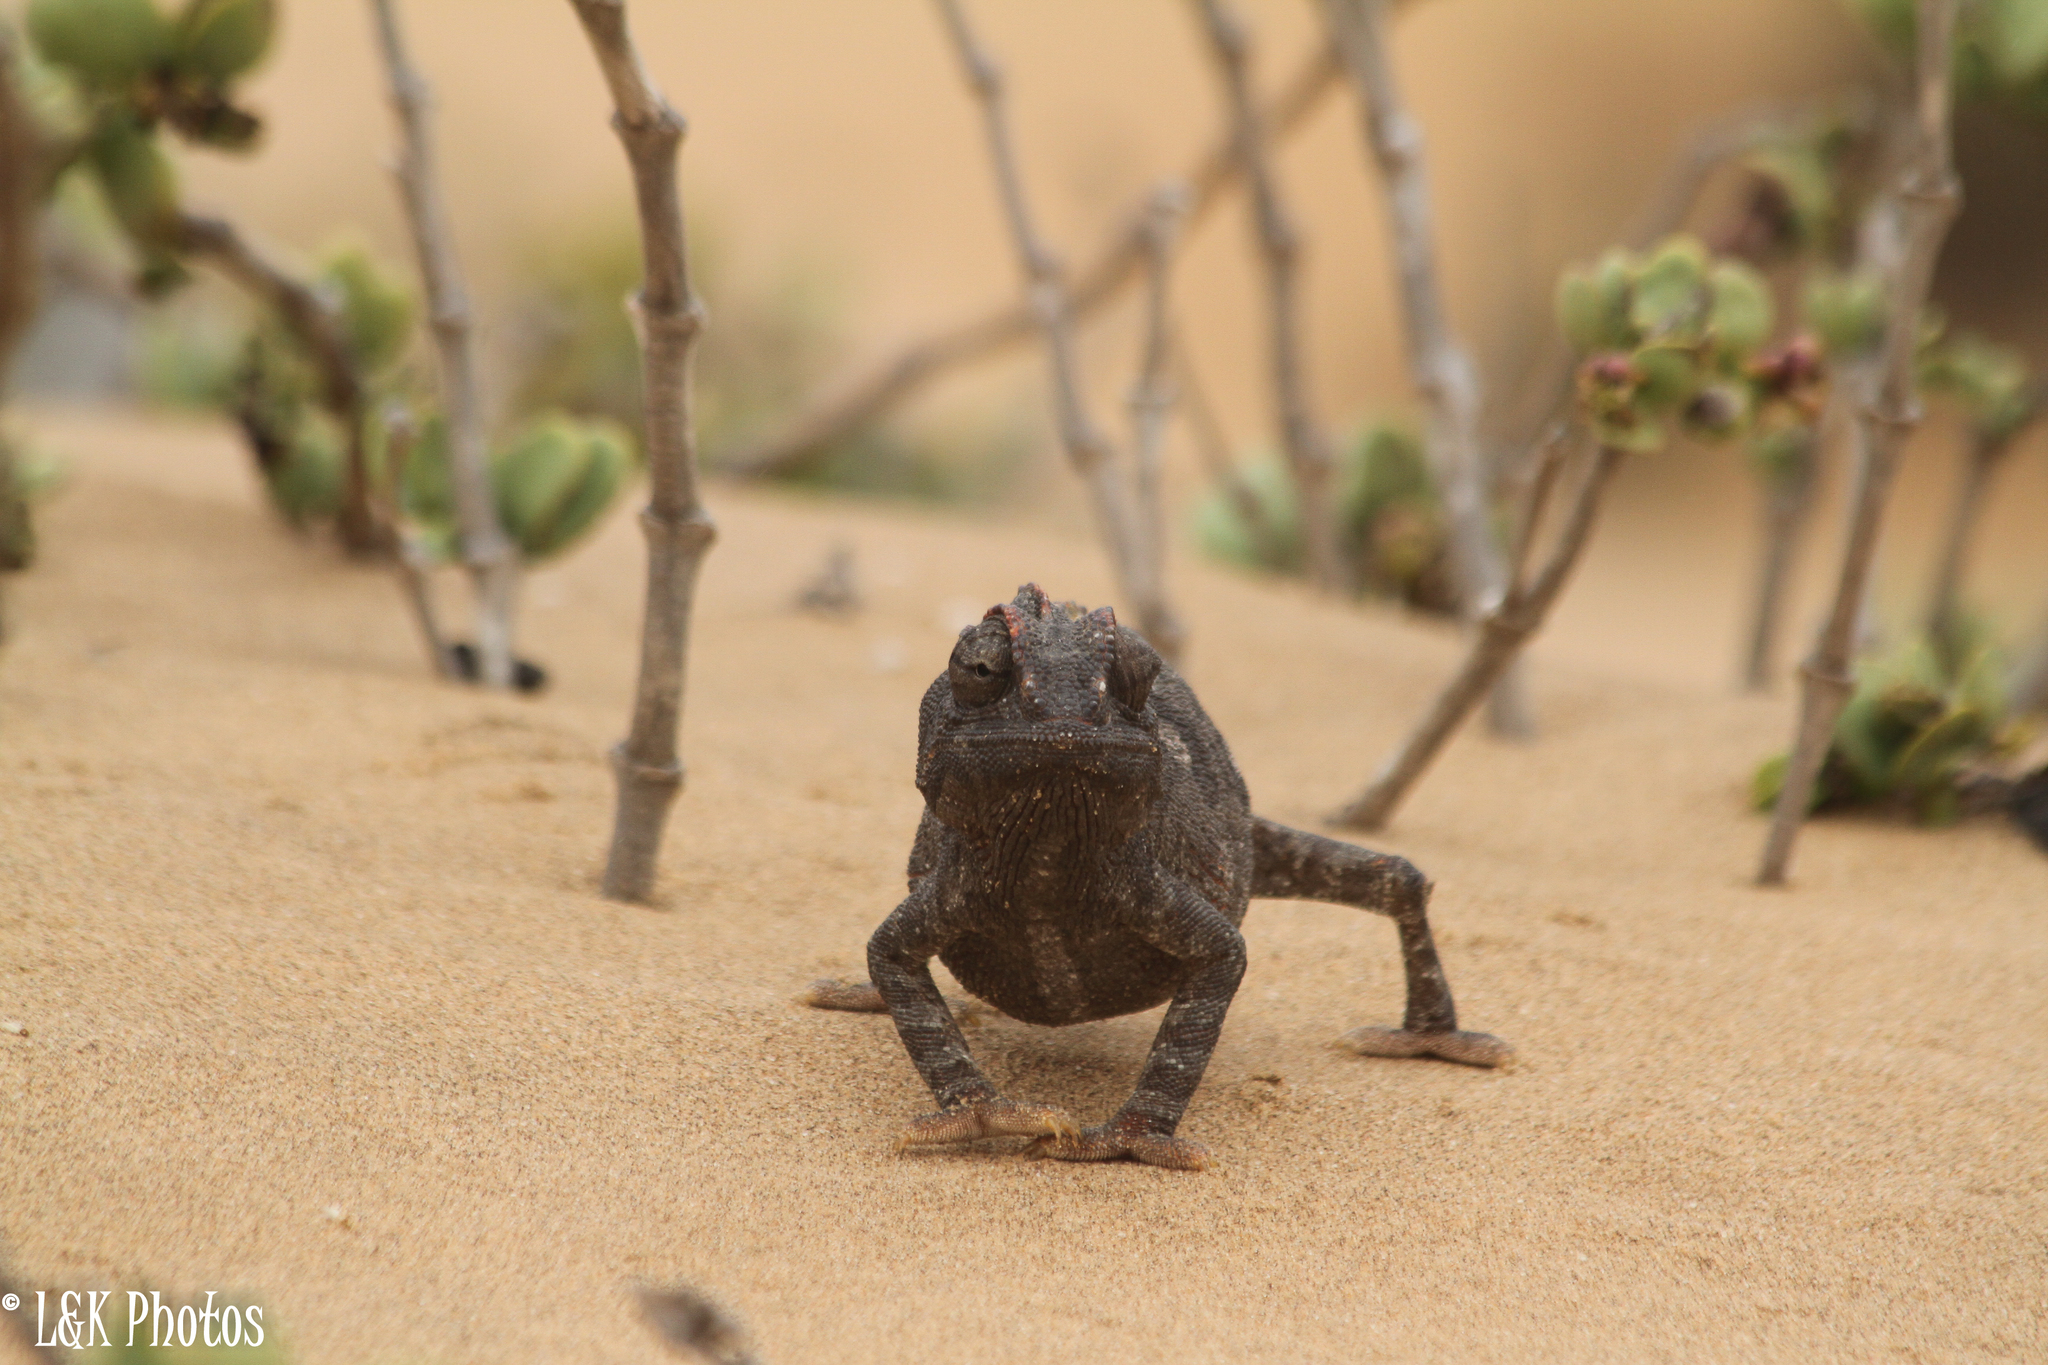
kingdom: Animalia
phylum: Chordata
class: Squamata
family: Chamaeleonidae
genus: Chamaeleo
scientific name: Chamaeleo namaquensis
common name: Namaqua chameleon
